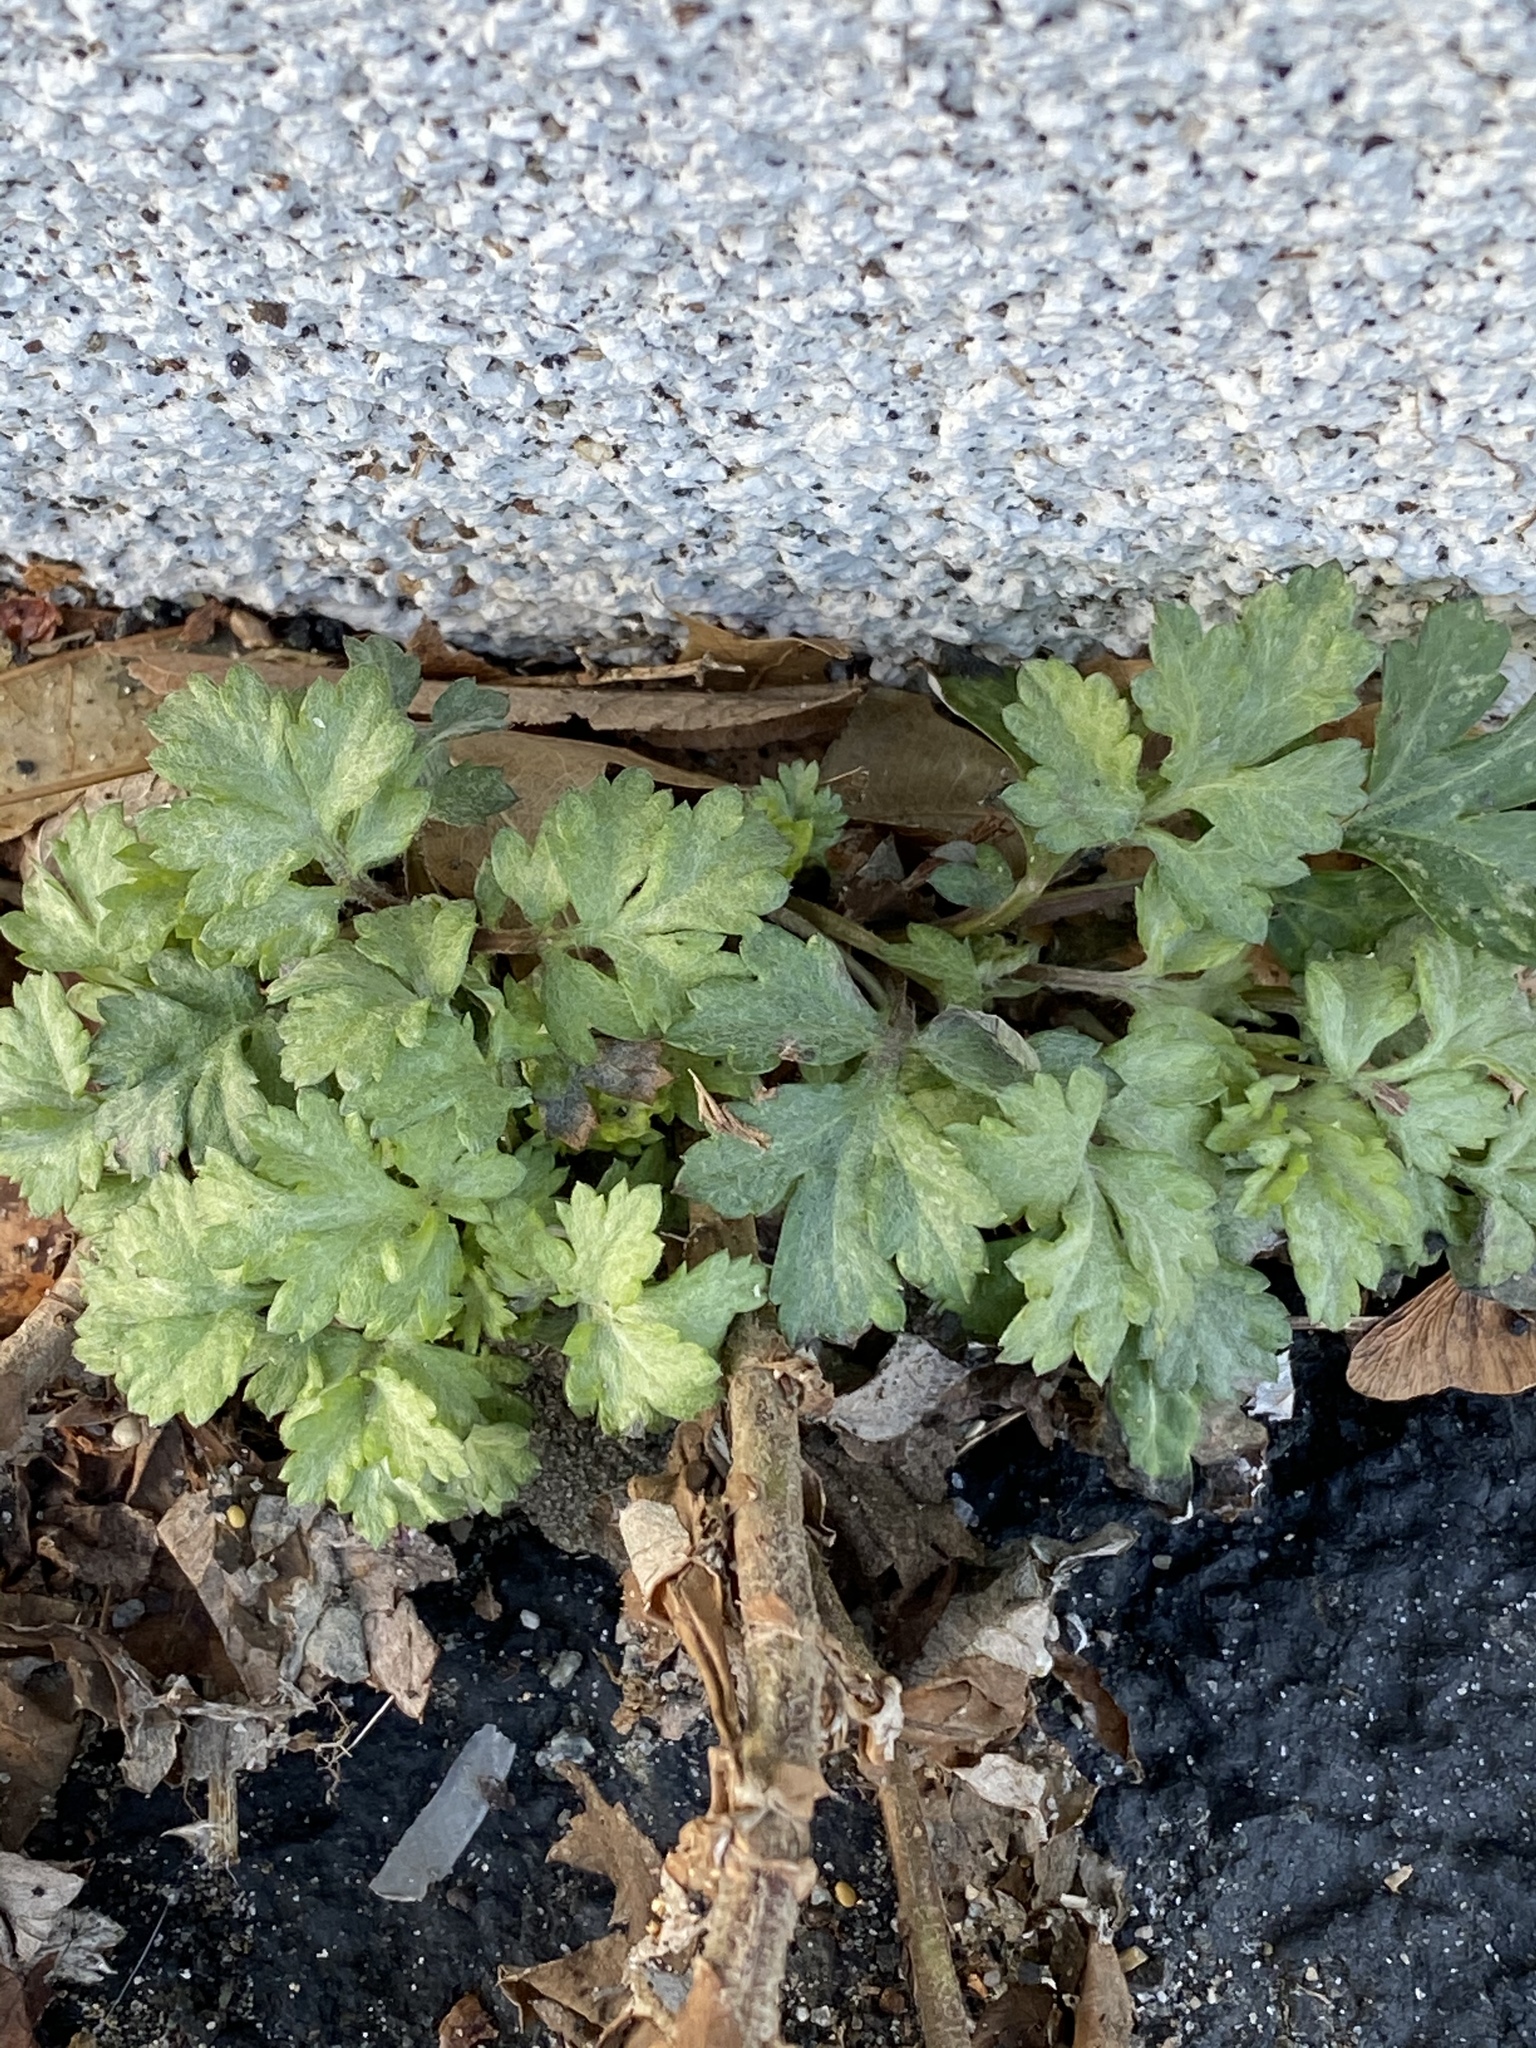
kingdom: Plantae
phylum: Tracheophyta
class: Magnoliopsida
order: Asterales
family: Asteraceae
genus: Artemisia
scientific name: Artemisia vulgaris
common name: Mugwort
